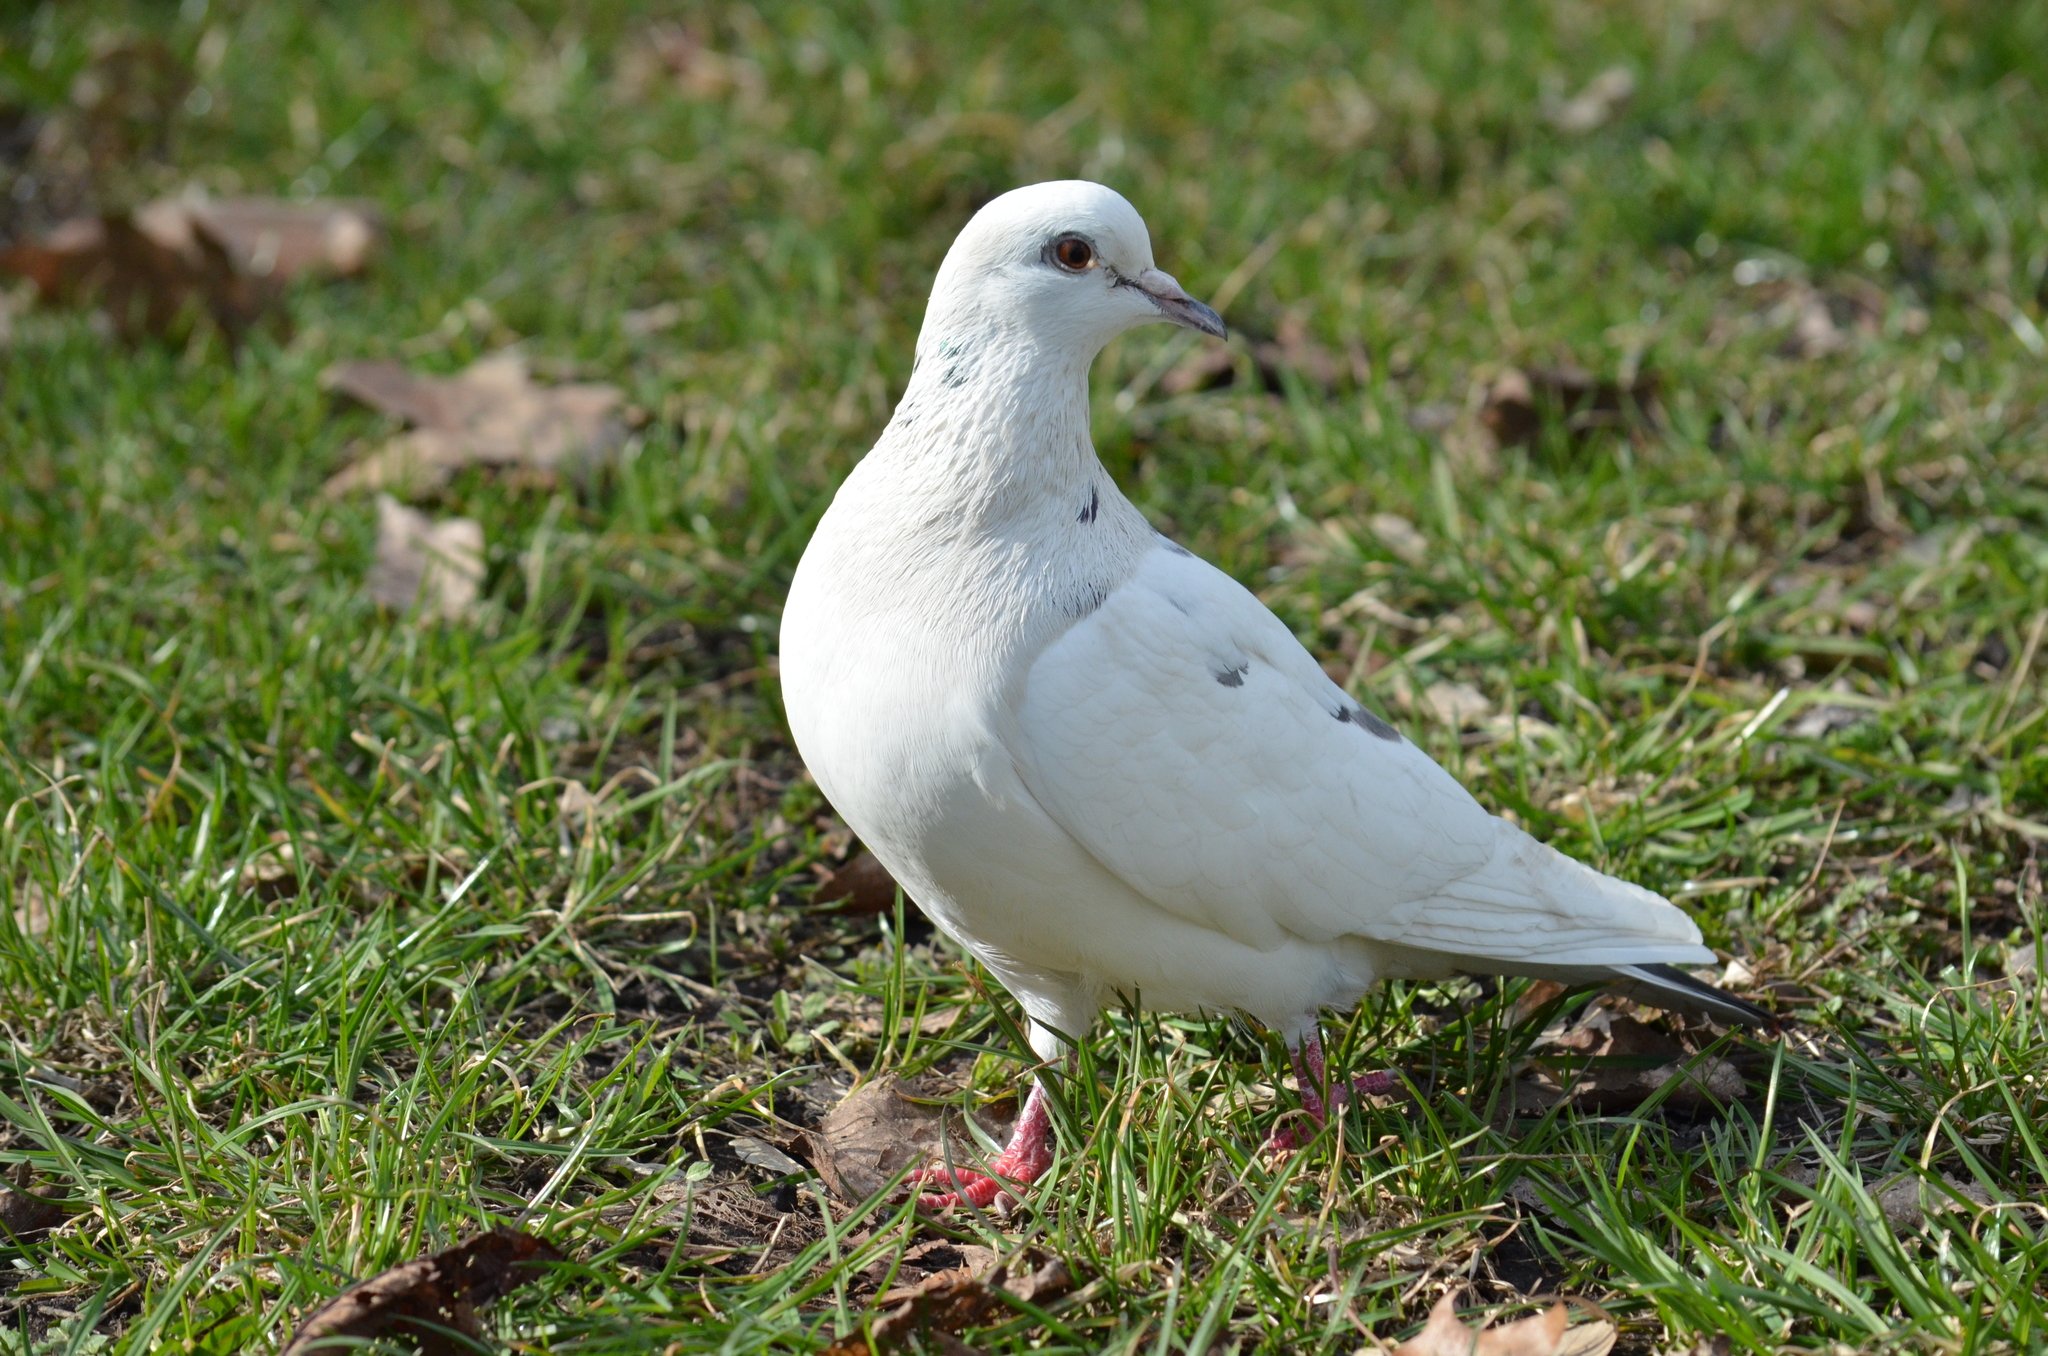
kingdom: Animalia
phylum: Chordata
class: Aves
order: Columbiformes
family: Columbidae
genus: Columba
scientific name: Columba livia
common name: Rock pigeon
